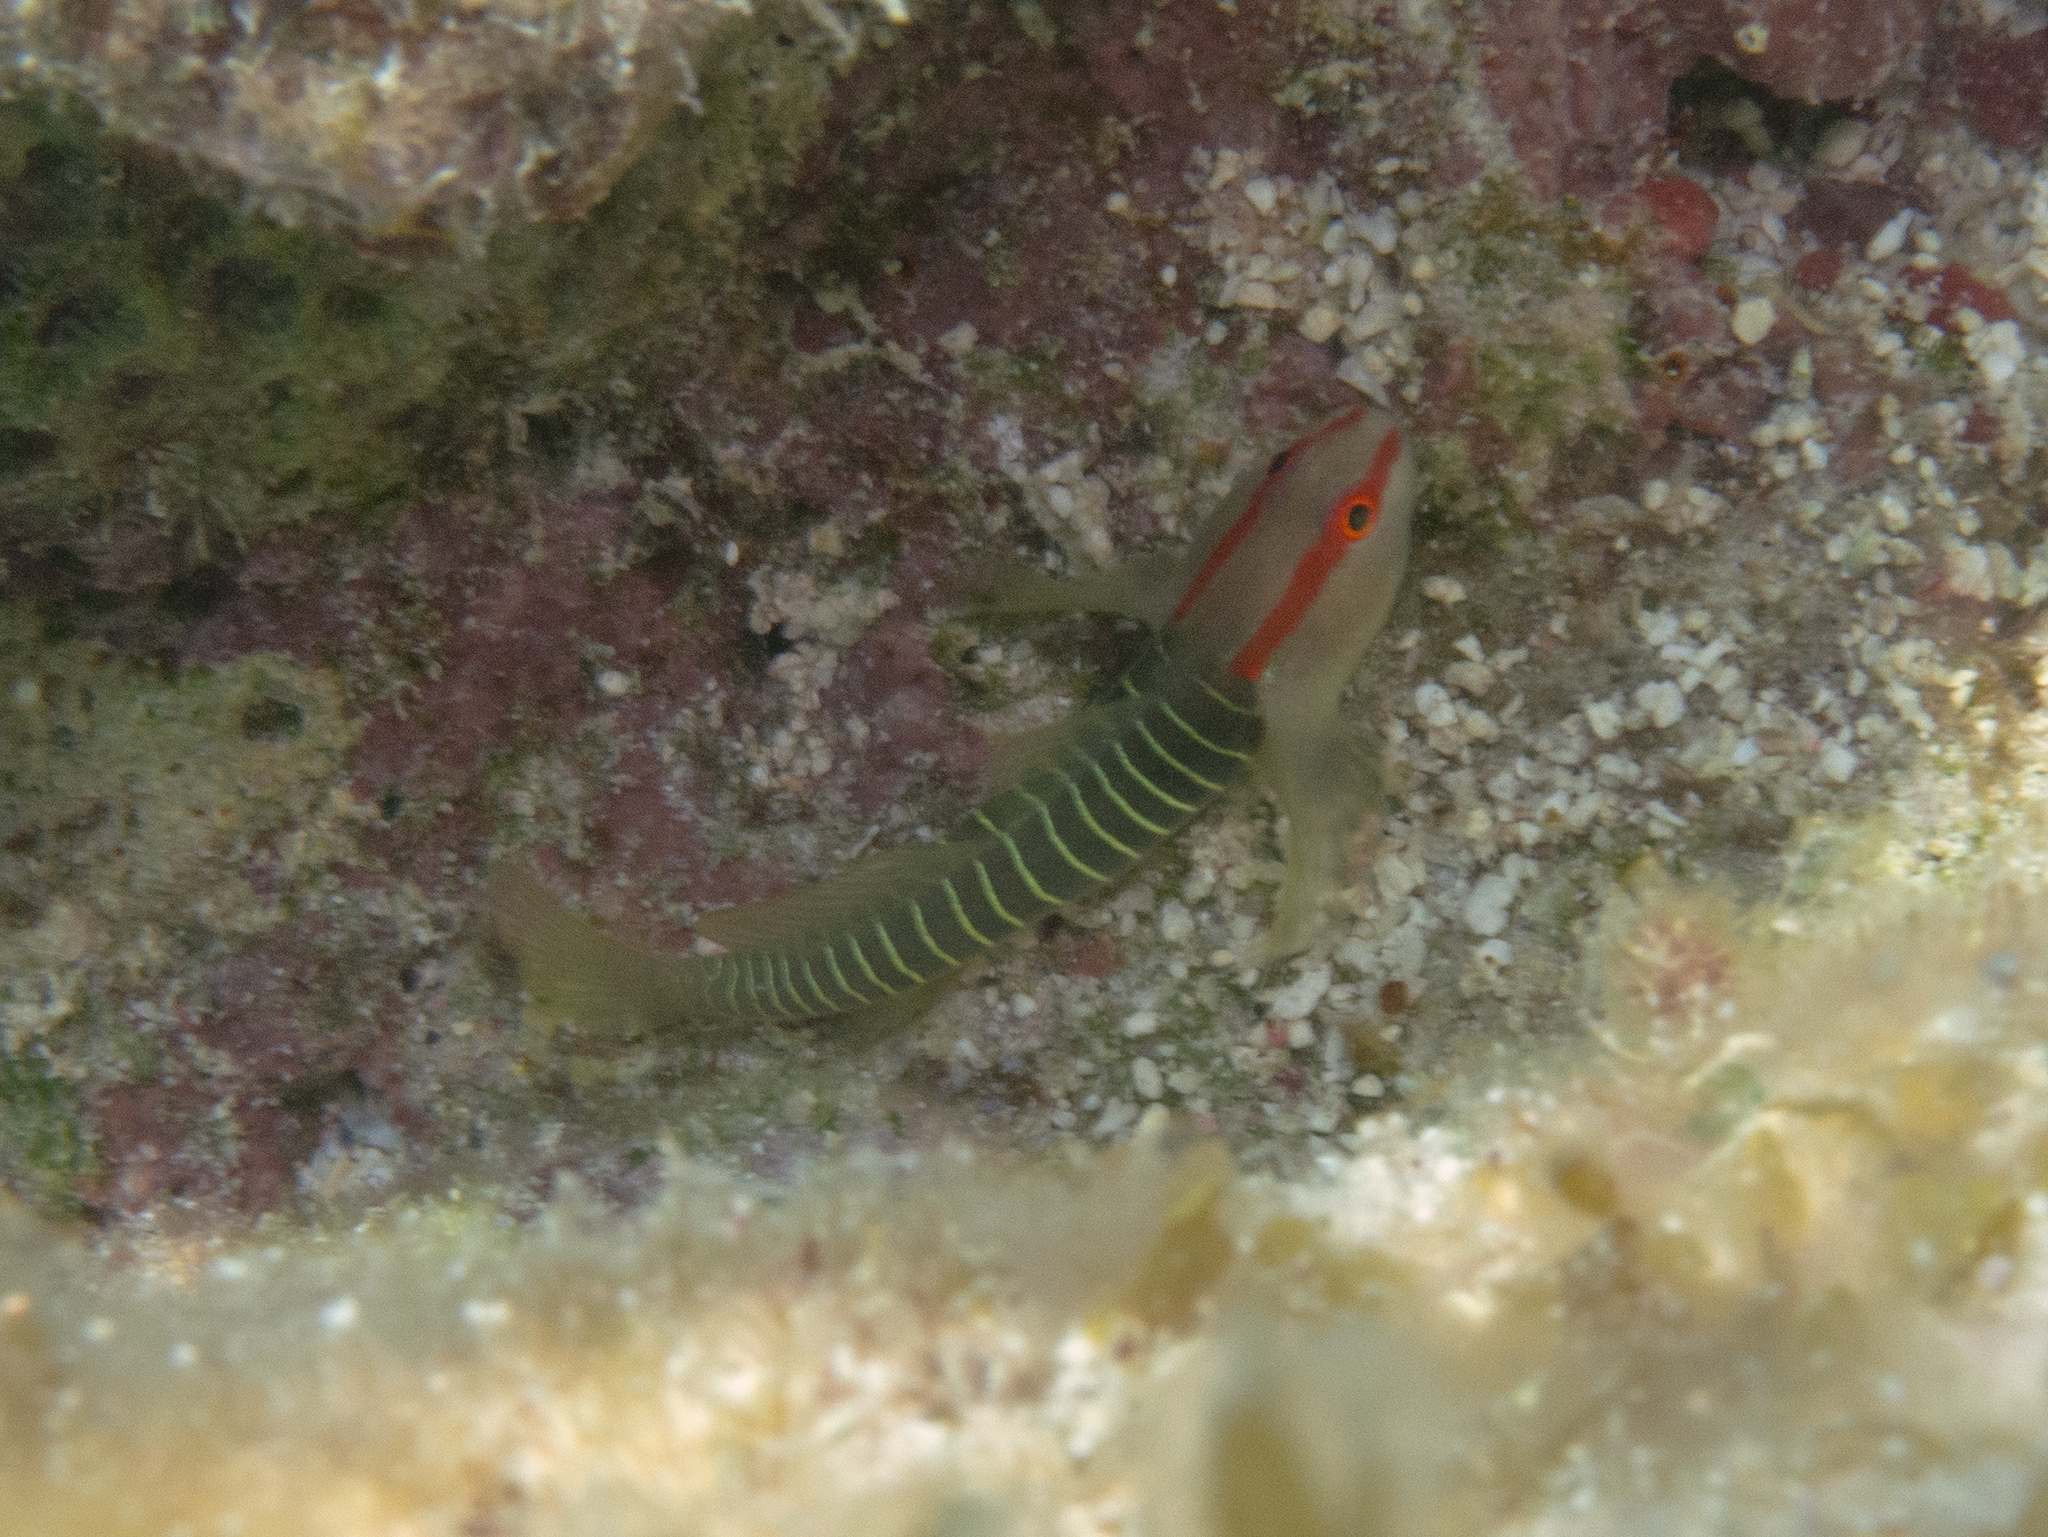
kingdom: Animalia
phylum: Chordata
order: Perciformes
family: Gobiidae
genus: Tigrigobius
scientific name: Tigrigobius harveyi
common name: Cayman greenbanded goby
